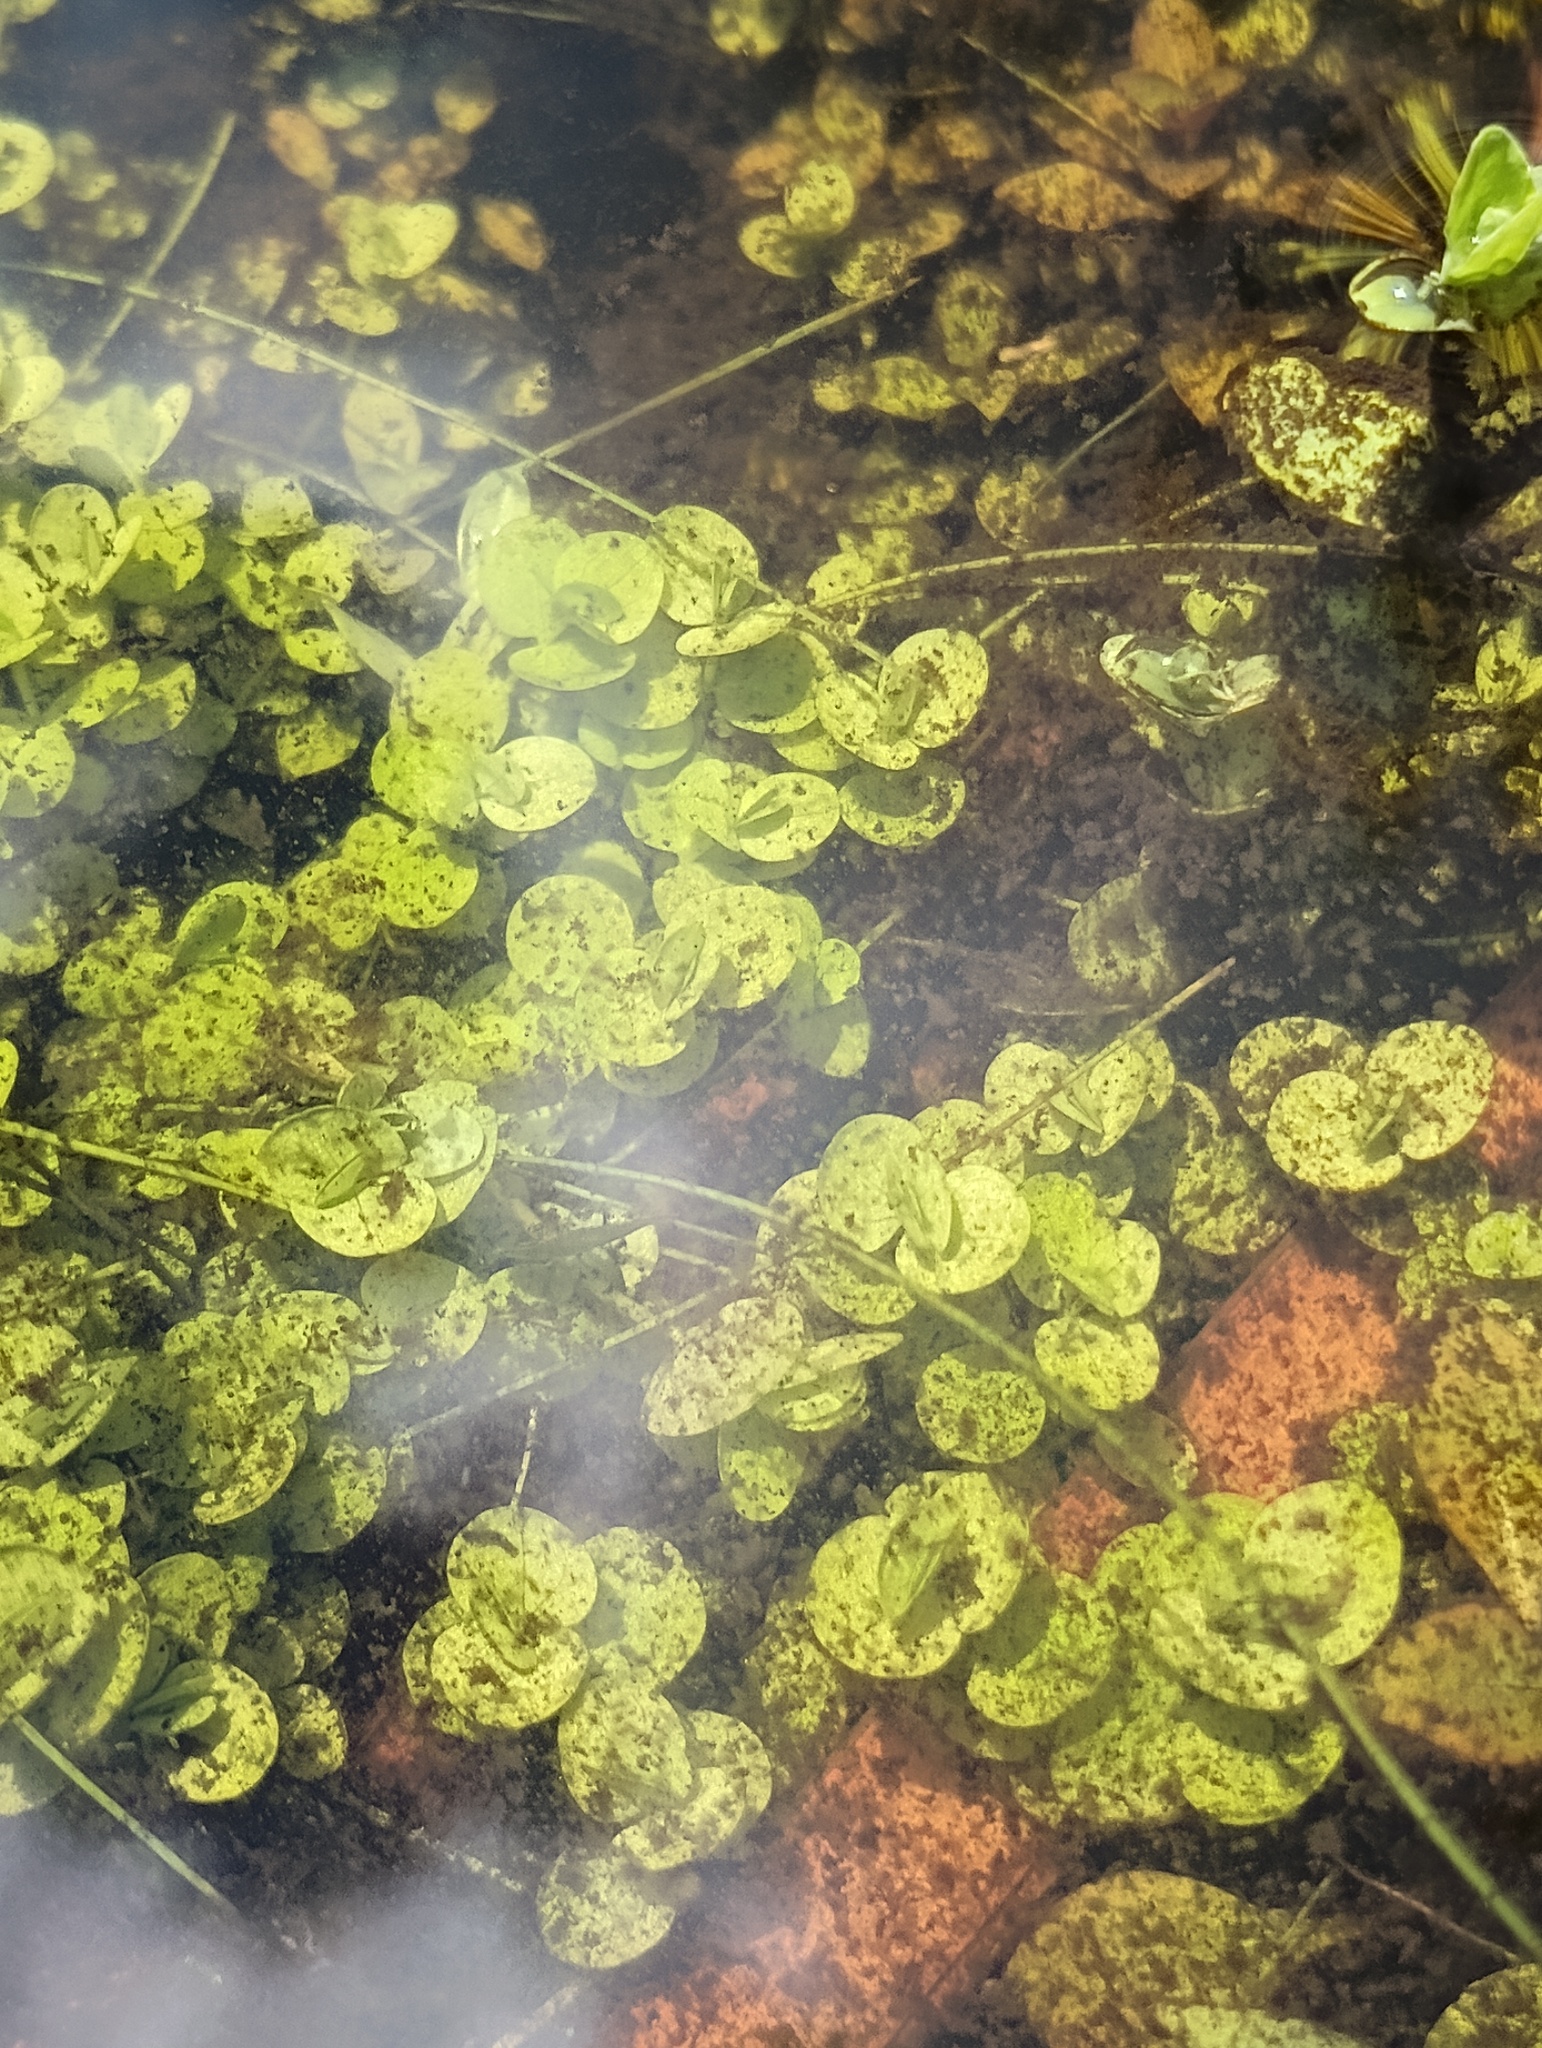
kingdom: Plantae
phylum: Tracheophyta
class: Magnoliopsida
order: Lamiales
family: Linderniaceae
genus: Micranthemum
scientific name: Micranthemum umbrosum
